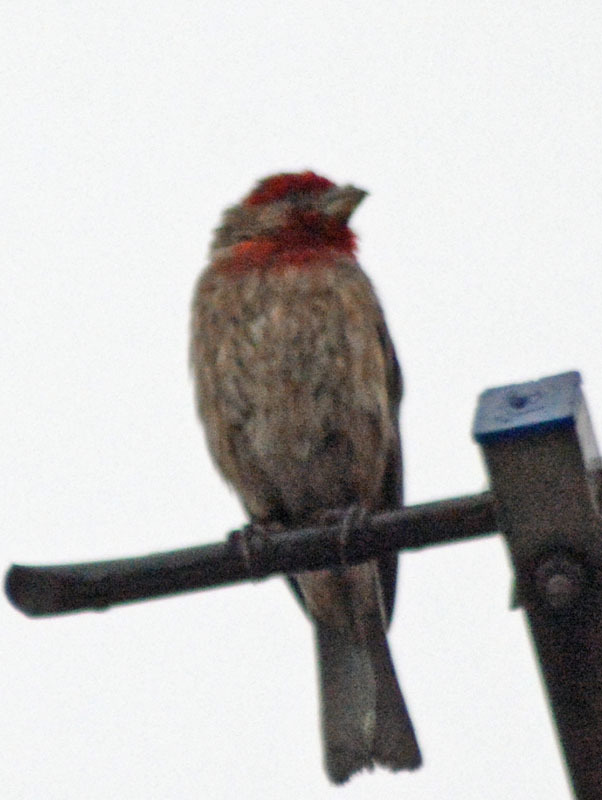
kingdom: Animalia
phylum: Chordata
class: Aves
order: Passeriformes
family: Fringillidae
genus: Haemorhous
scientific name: Haemorhous mexicanus
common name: House finch
